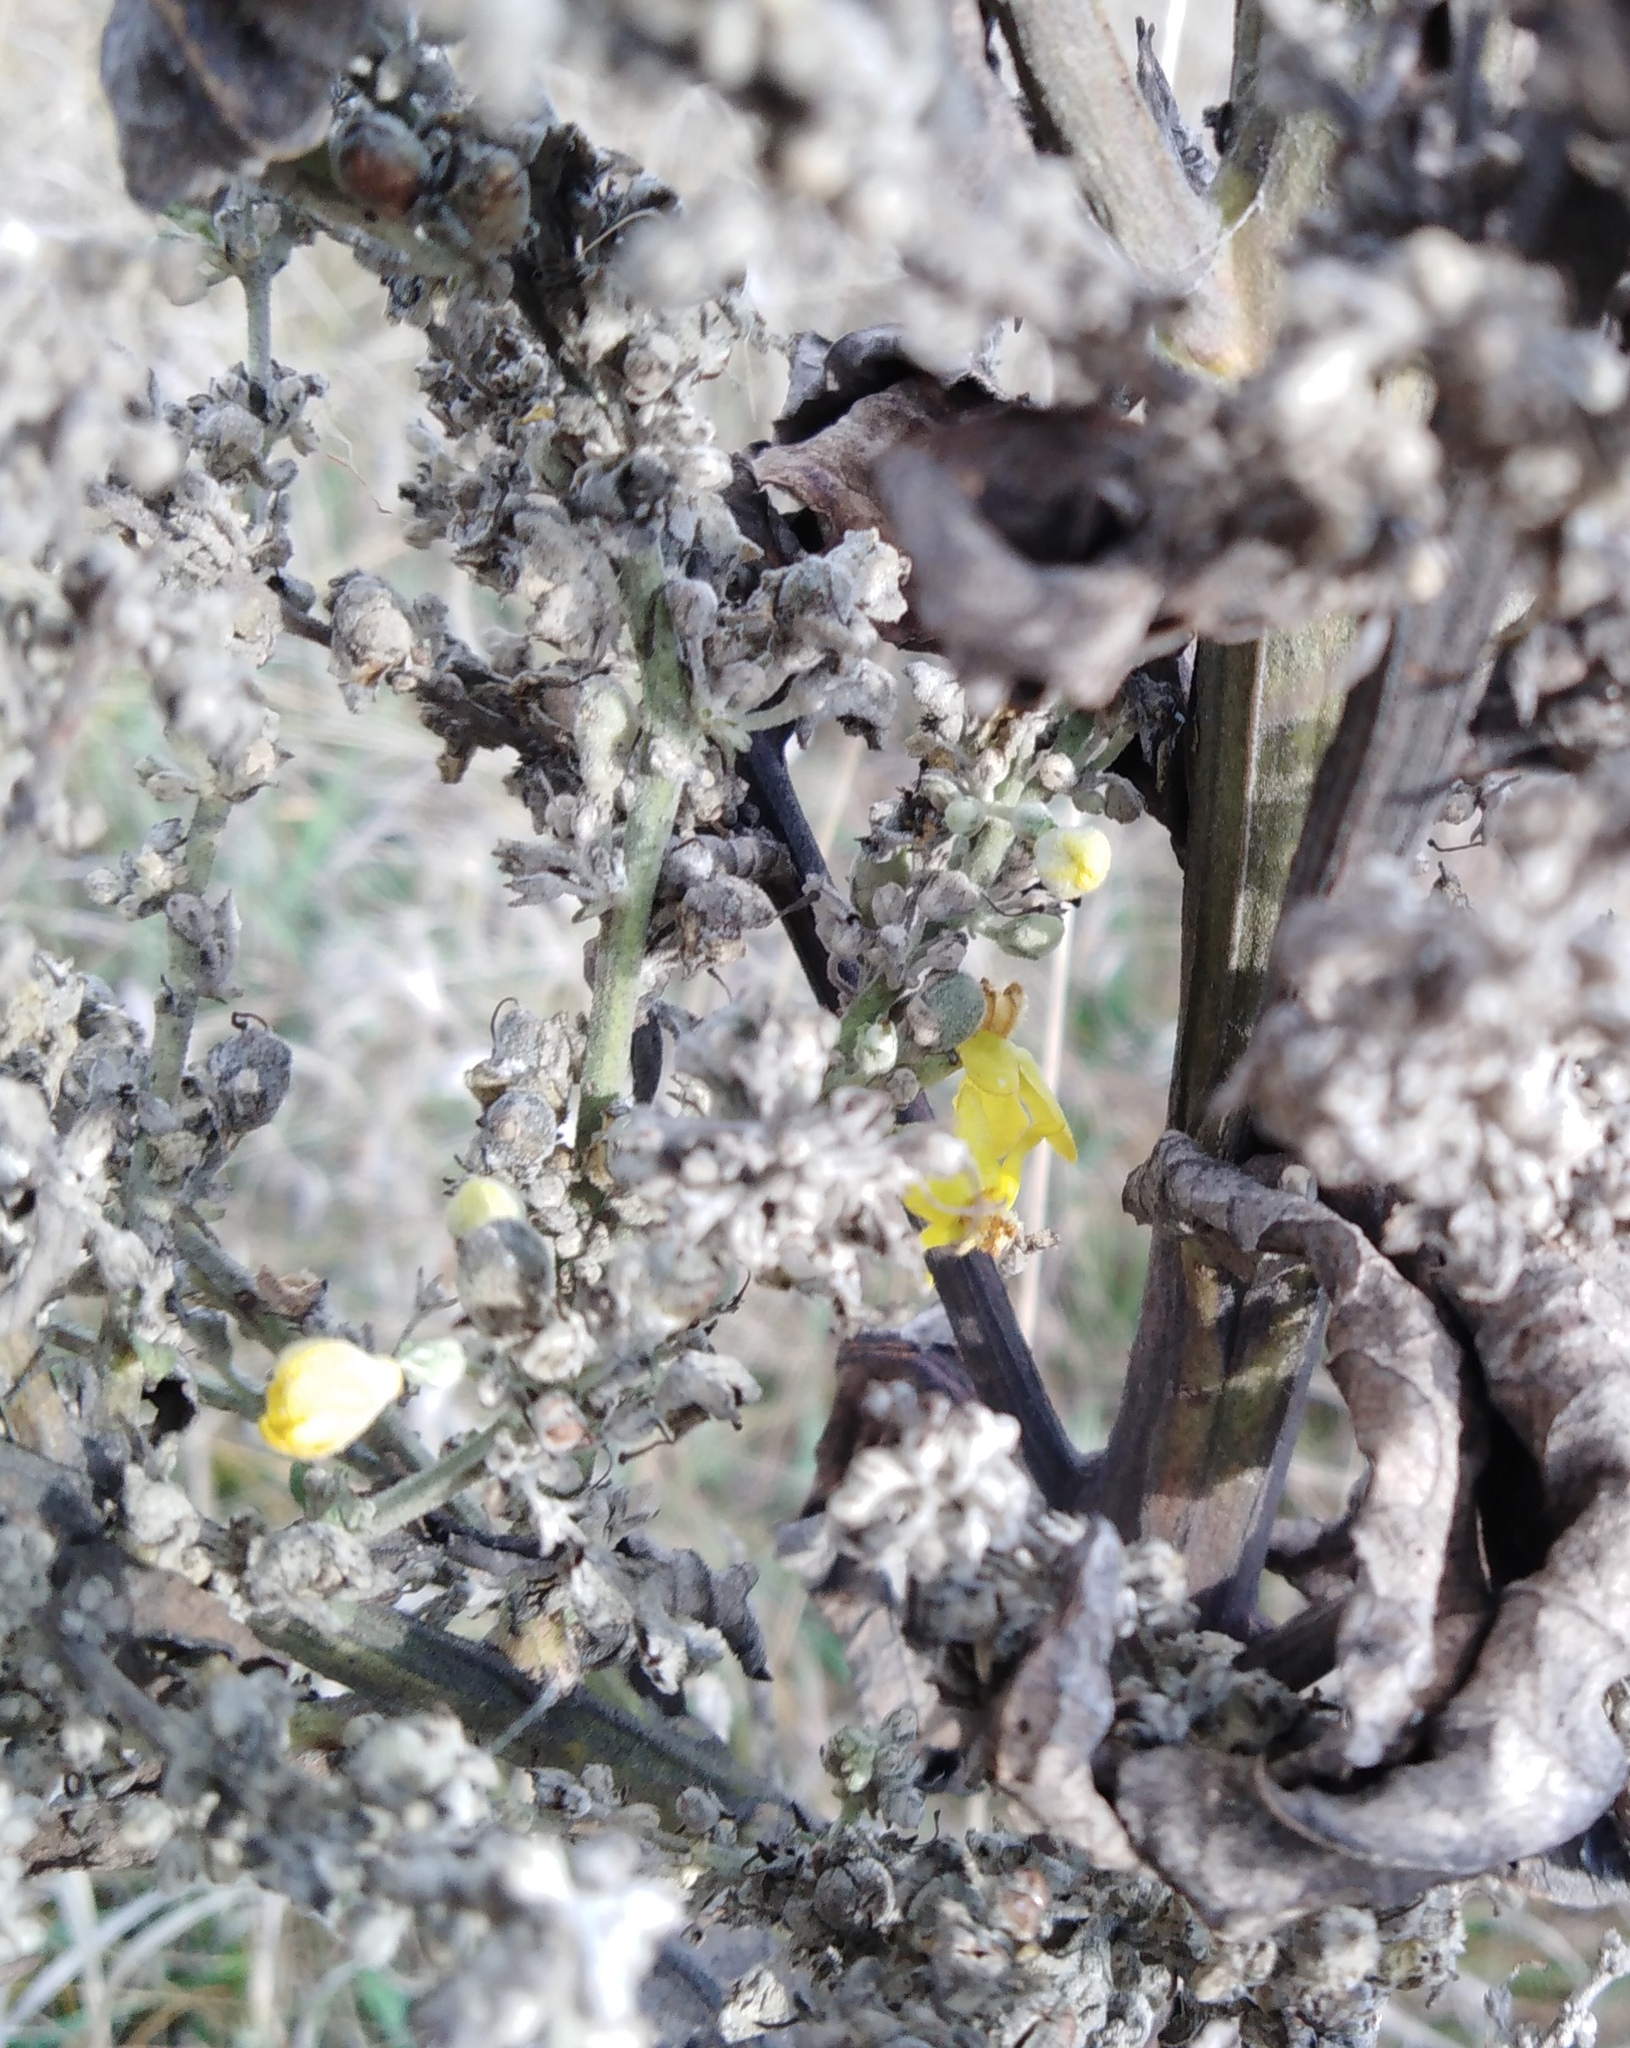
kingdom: Plantae
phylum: Tracheophyta
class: Magnoliopsida
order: Lamiales
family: Scrophulariaceae
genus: Verbascum
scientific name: Verbascum lychnitis
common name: White mullein
